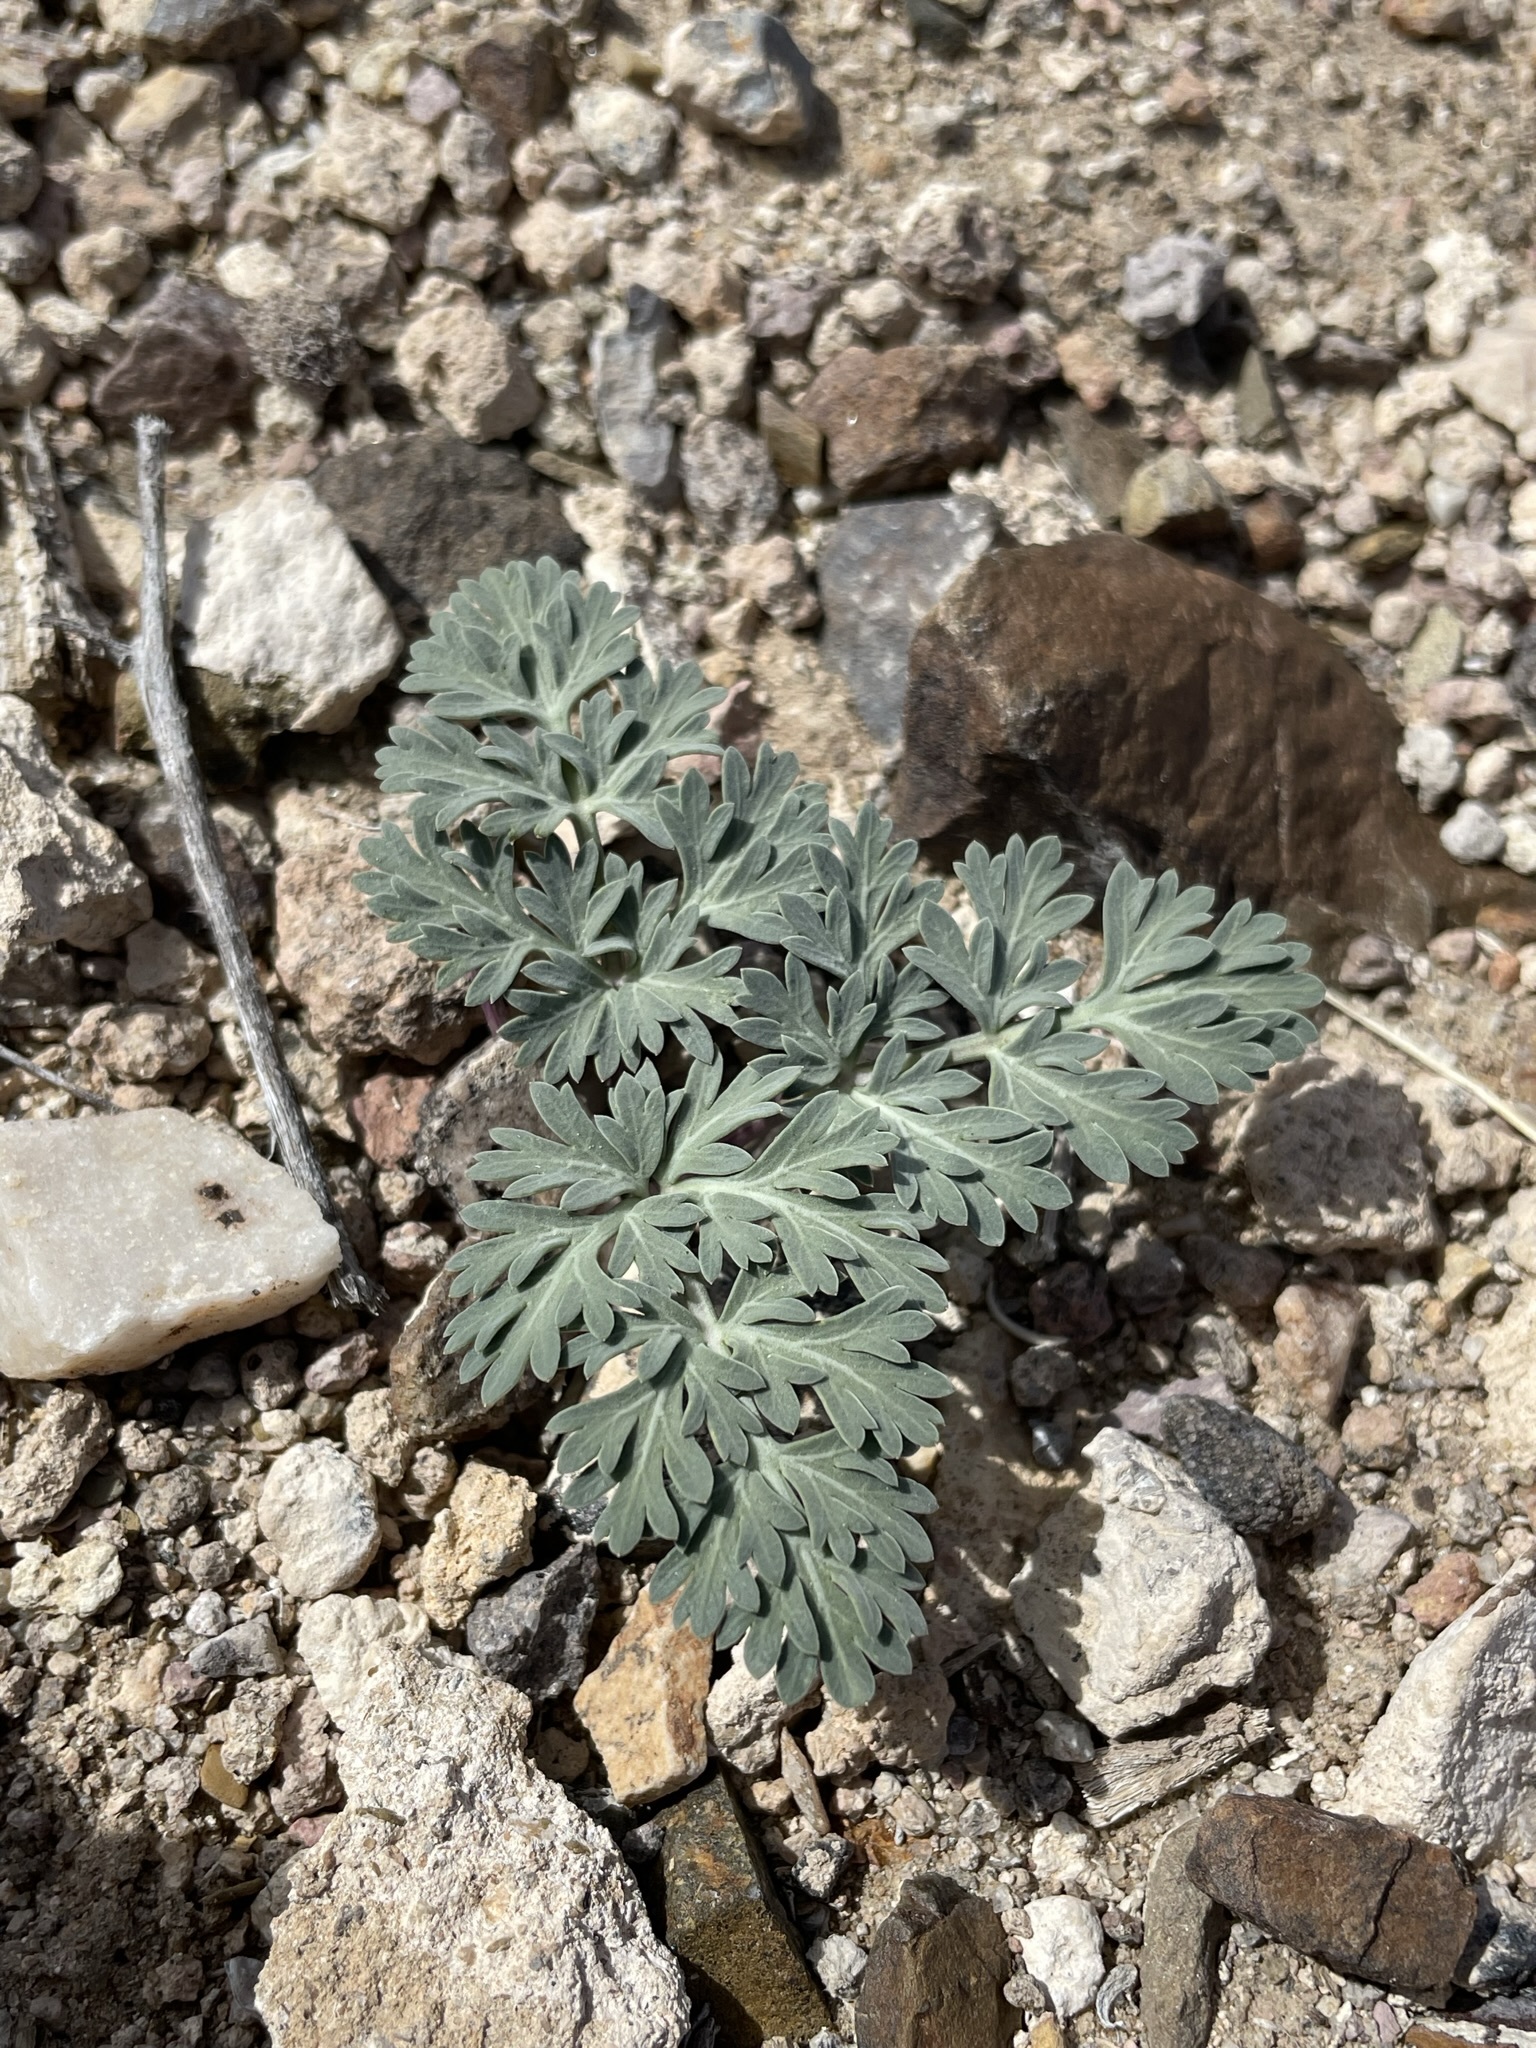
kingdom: Plantae
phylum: Tracheophyta
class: Magnoliopsida
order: Apiales
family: Apiaceae
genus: Cymopterus
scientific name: Cymopterus globosus
